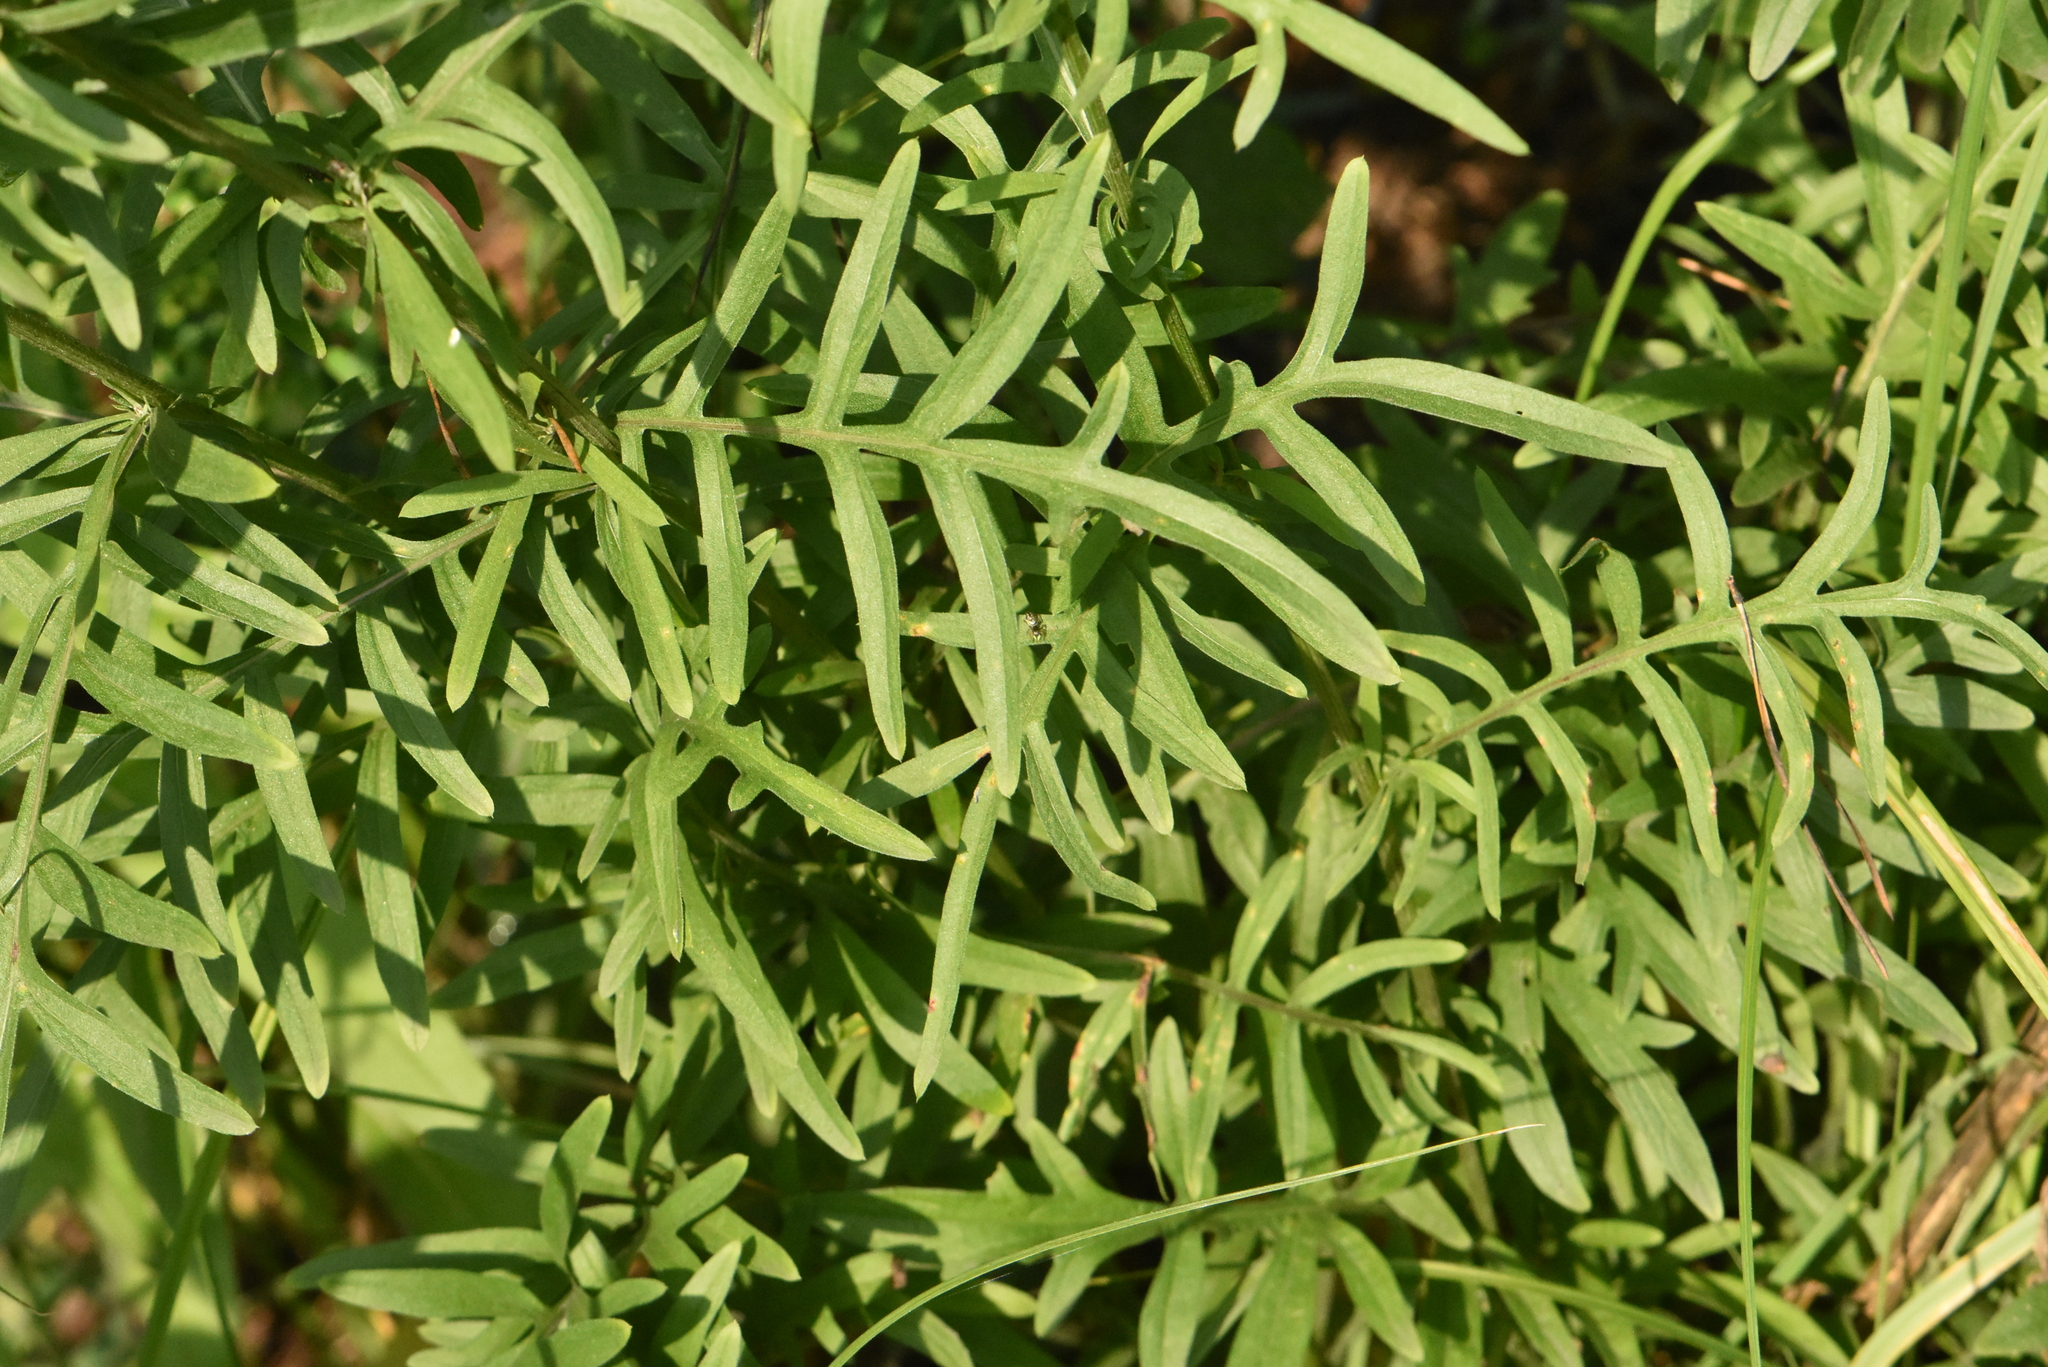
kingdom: Plantae
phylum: Tracheophyta
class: Magnoliopsida
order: Asterales
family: Asteraceae
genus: Centaurea
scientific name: Centaurea scabiosa
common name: Greater knapweed
